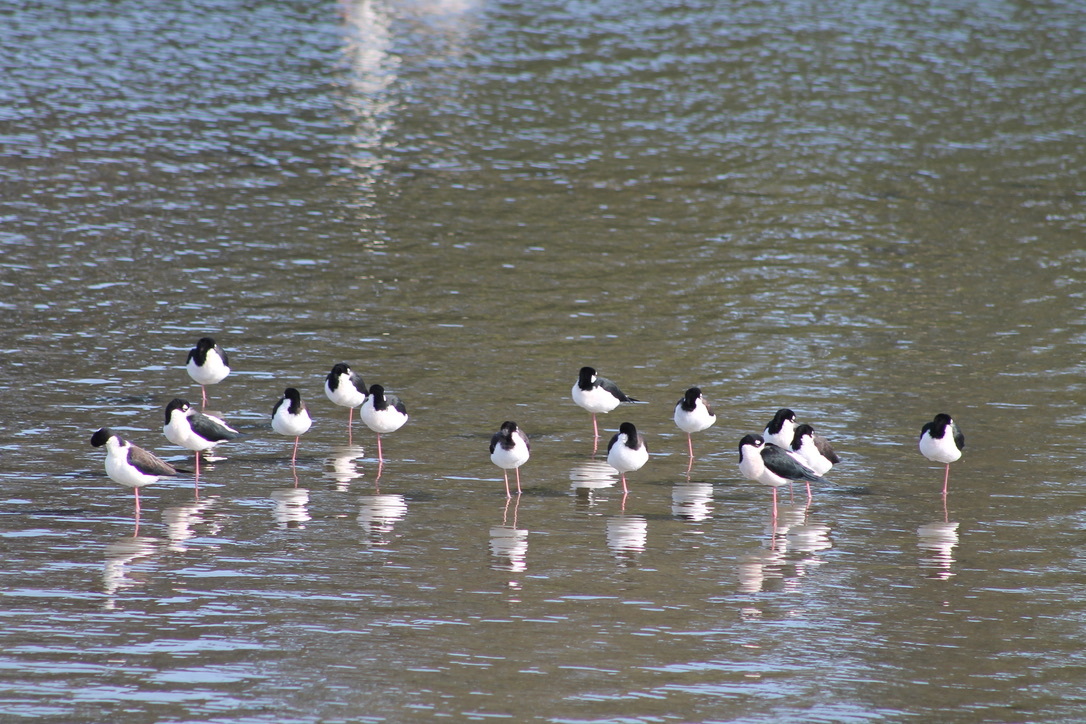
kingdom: Animalia
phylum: Chordata
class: Aves
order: Charadriiformes
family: Recurvirostridae
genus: Himantopus
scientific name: Himantopus mexicanus
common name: Black-necked stilt
